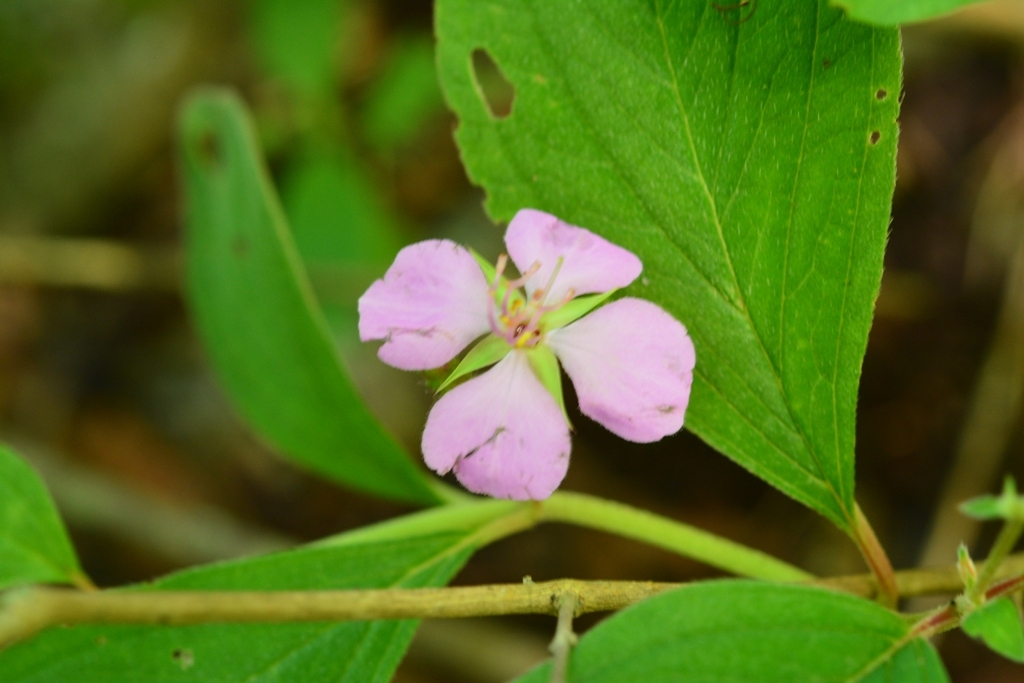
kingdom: Plantae
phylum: Tracheophyta
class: Magnoliopsida
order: Myrtales
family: Melastomataceae
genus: Heterocentron
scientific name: Heterocentron muricatum
